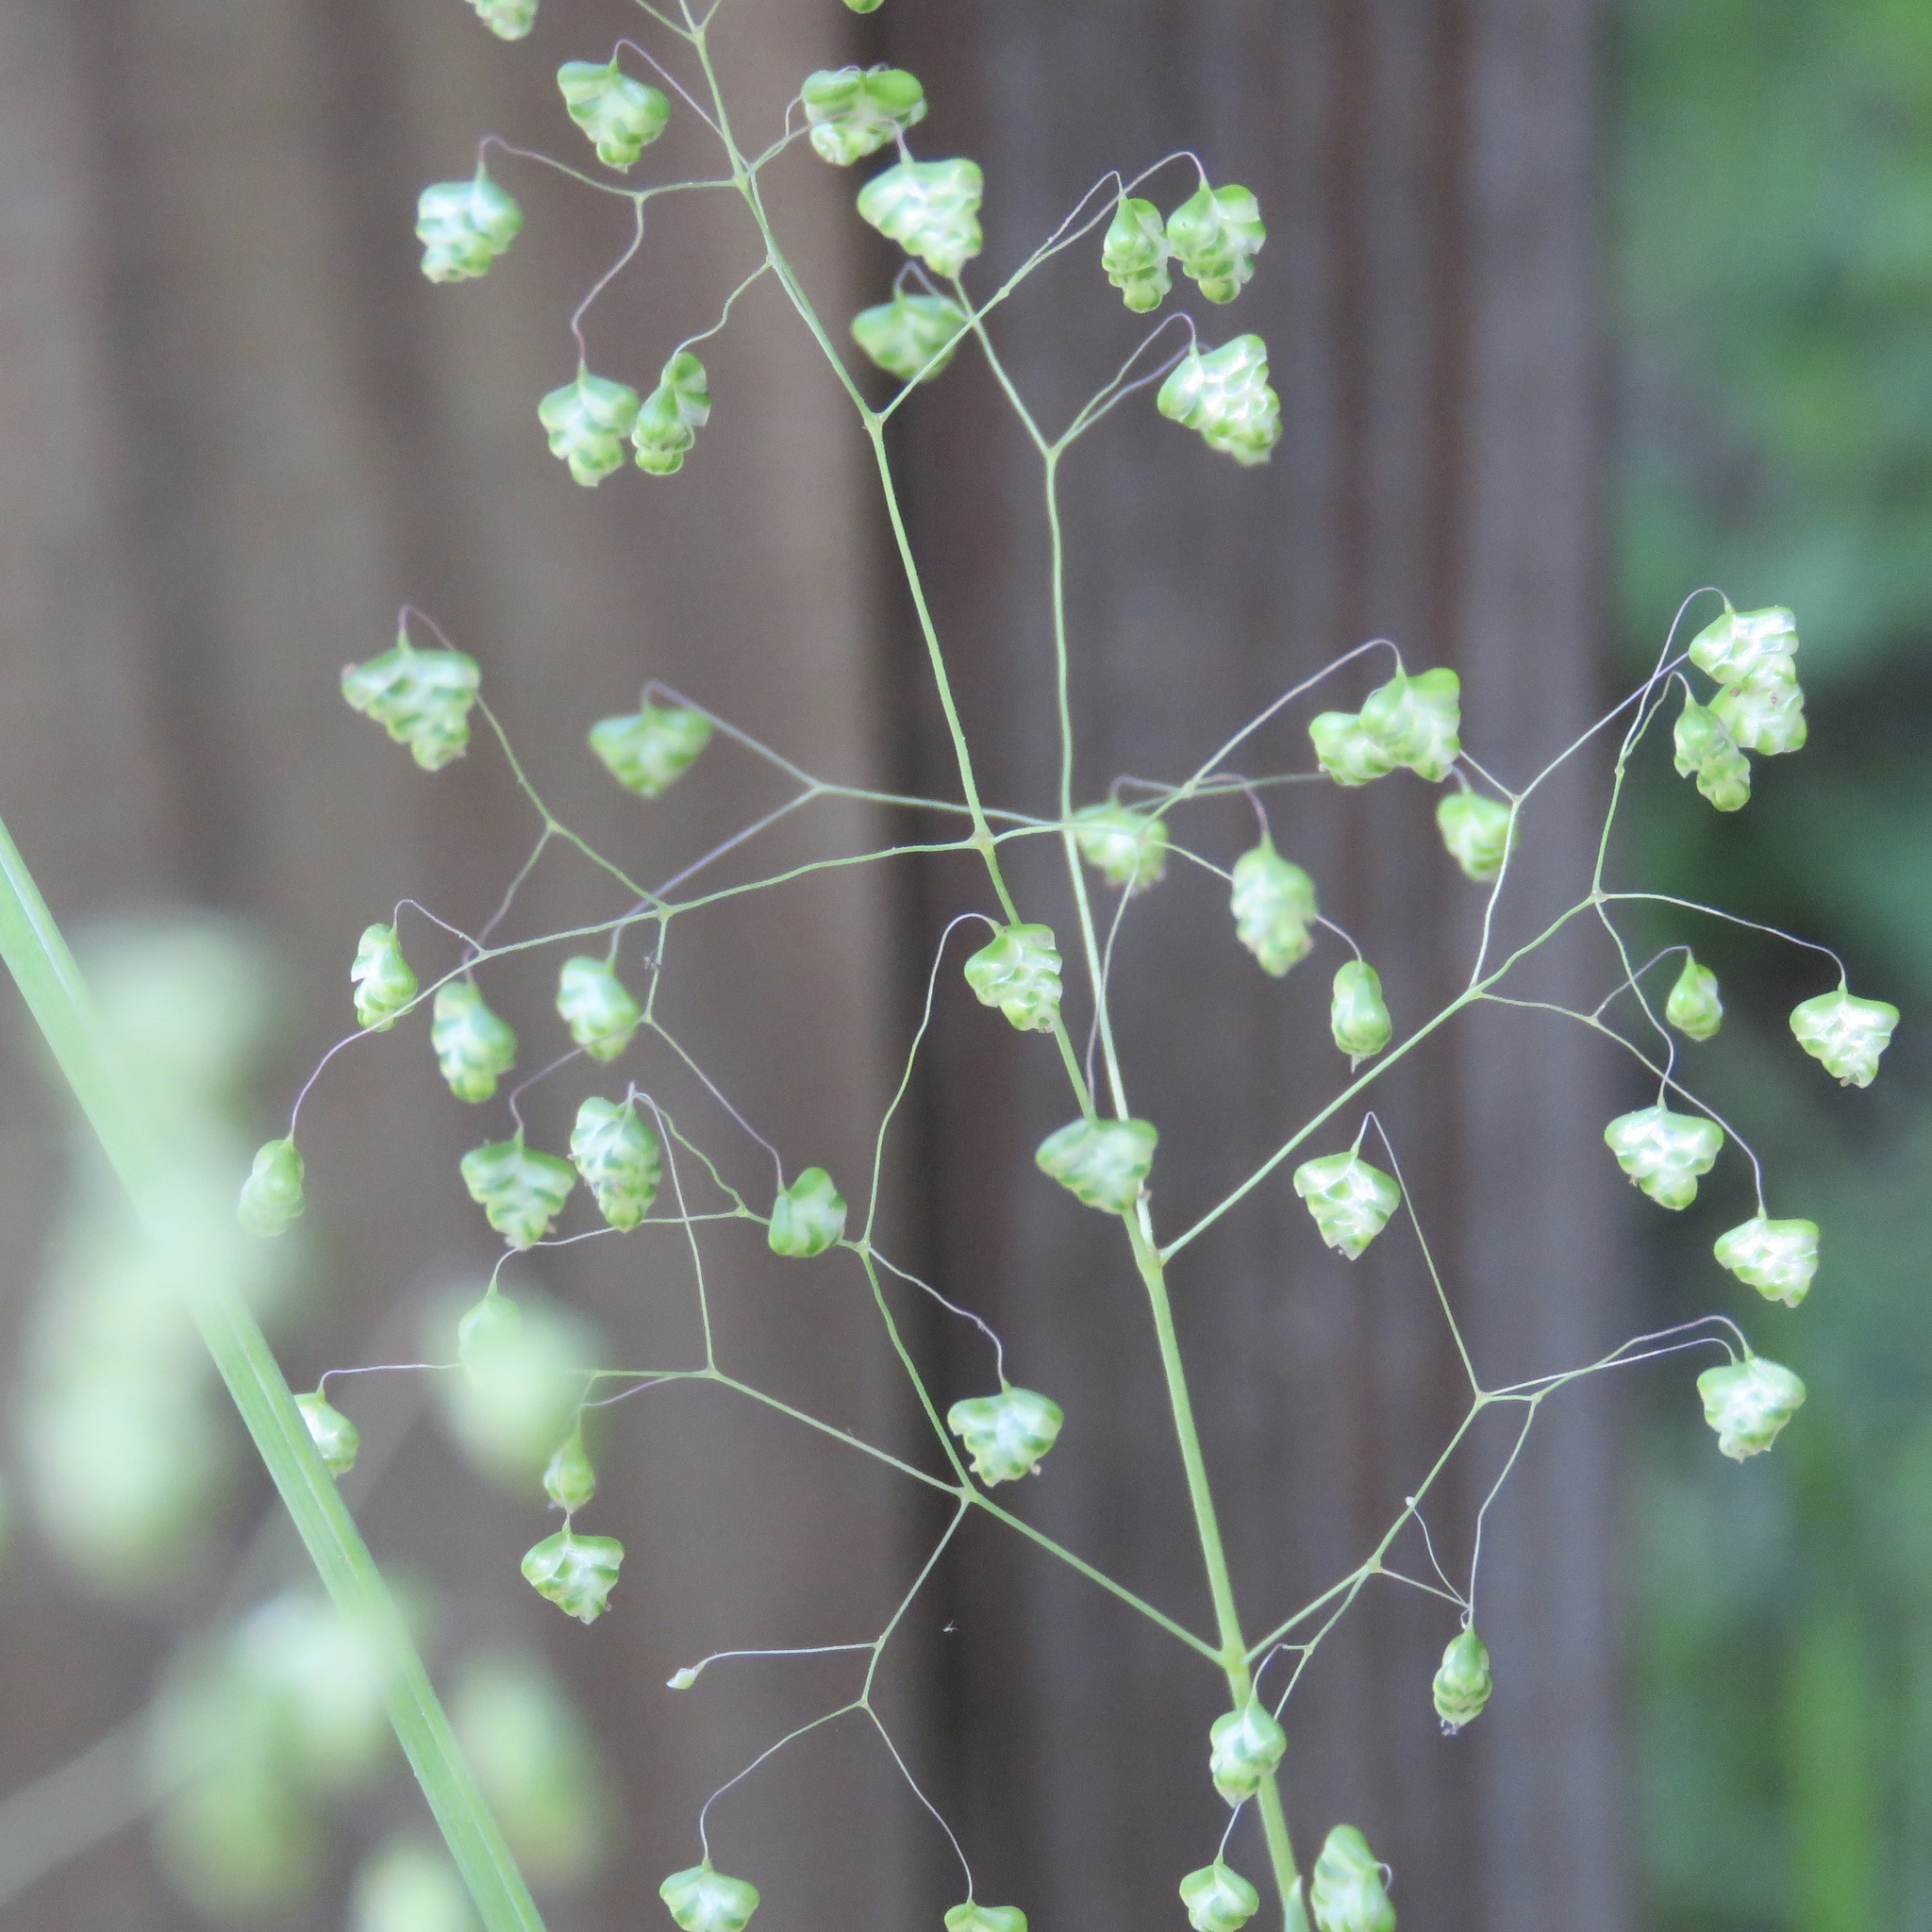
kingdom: Plantae
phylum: Tracheophyta
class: Liliopsida
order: Poales
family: Poaceae
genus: Briza
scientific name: Briza minor
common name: Lesser quaking-grass
